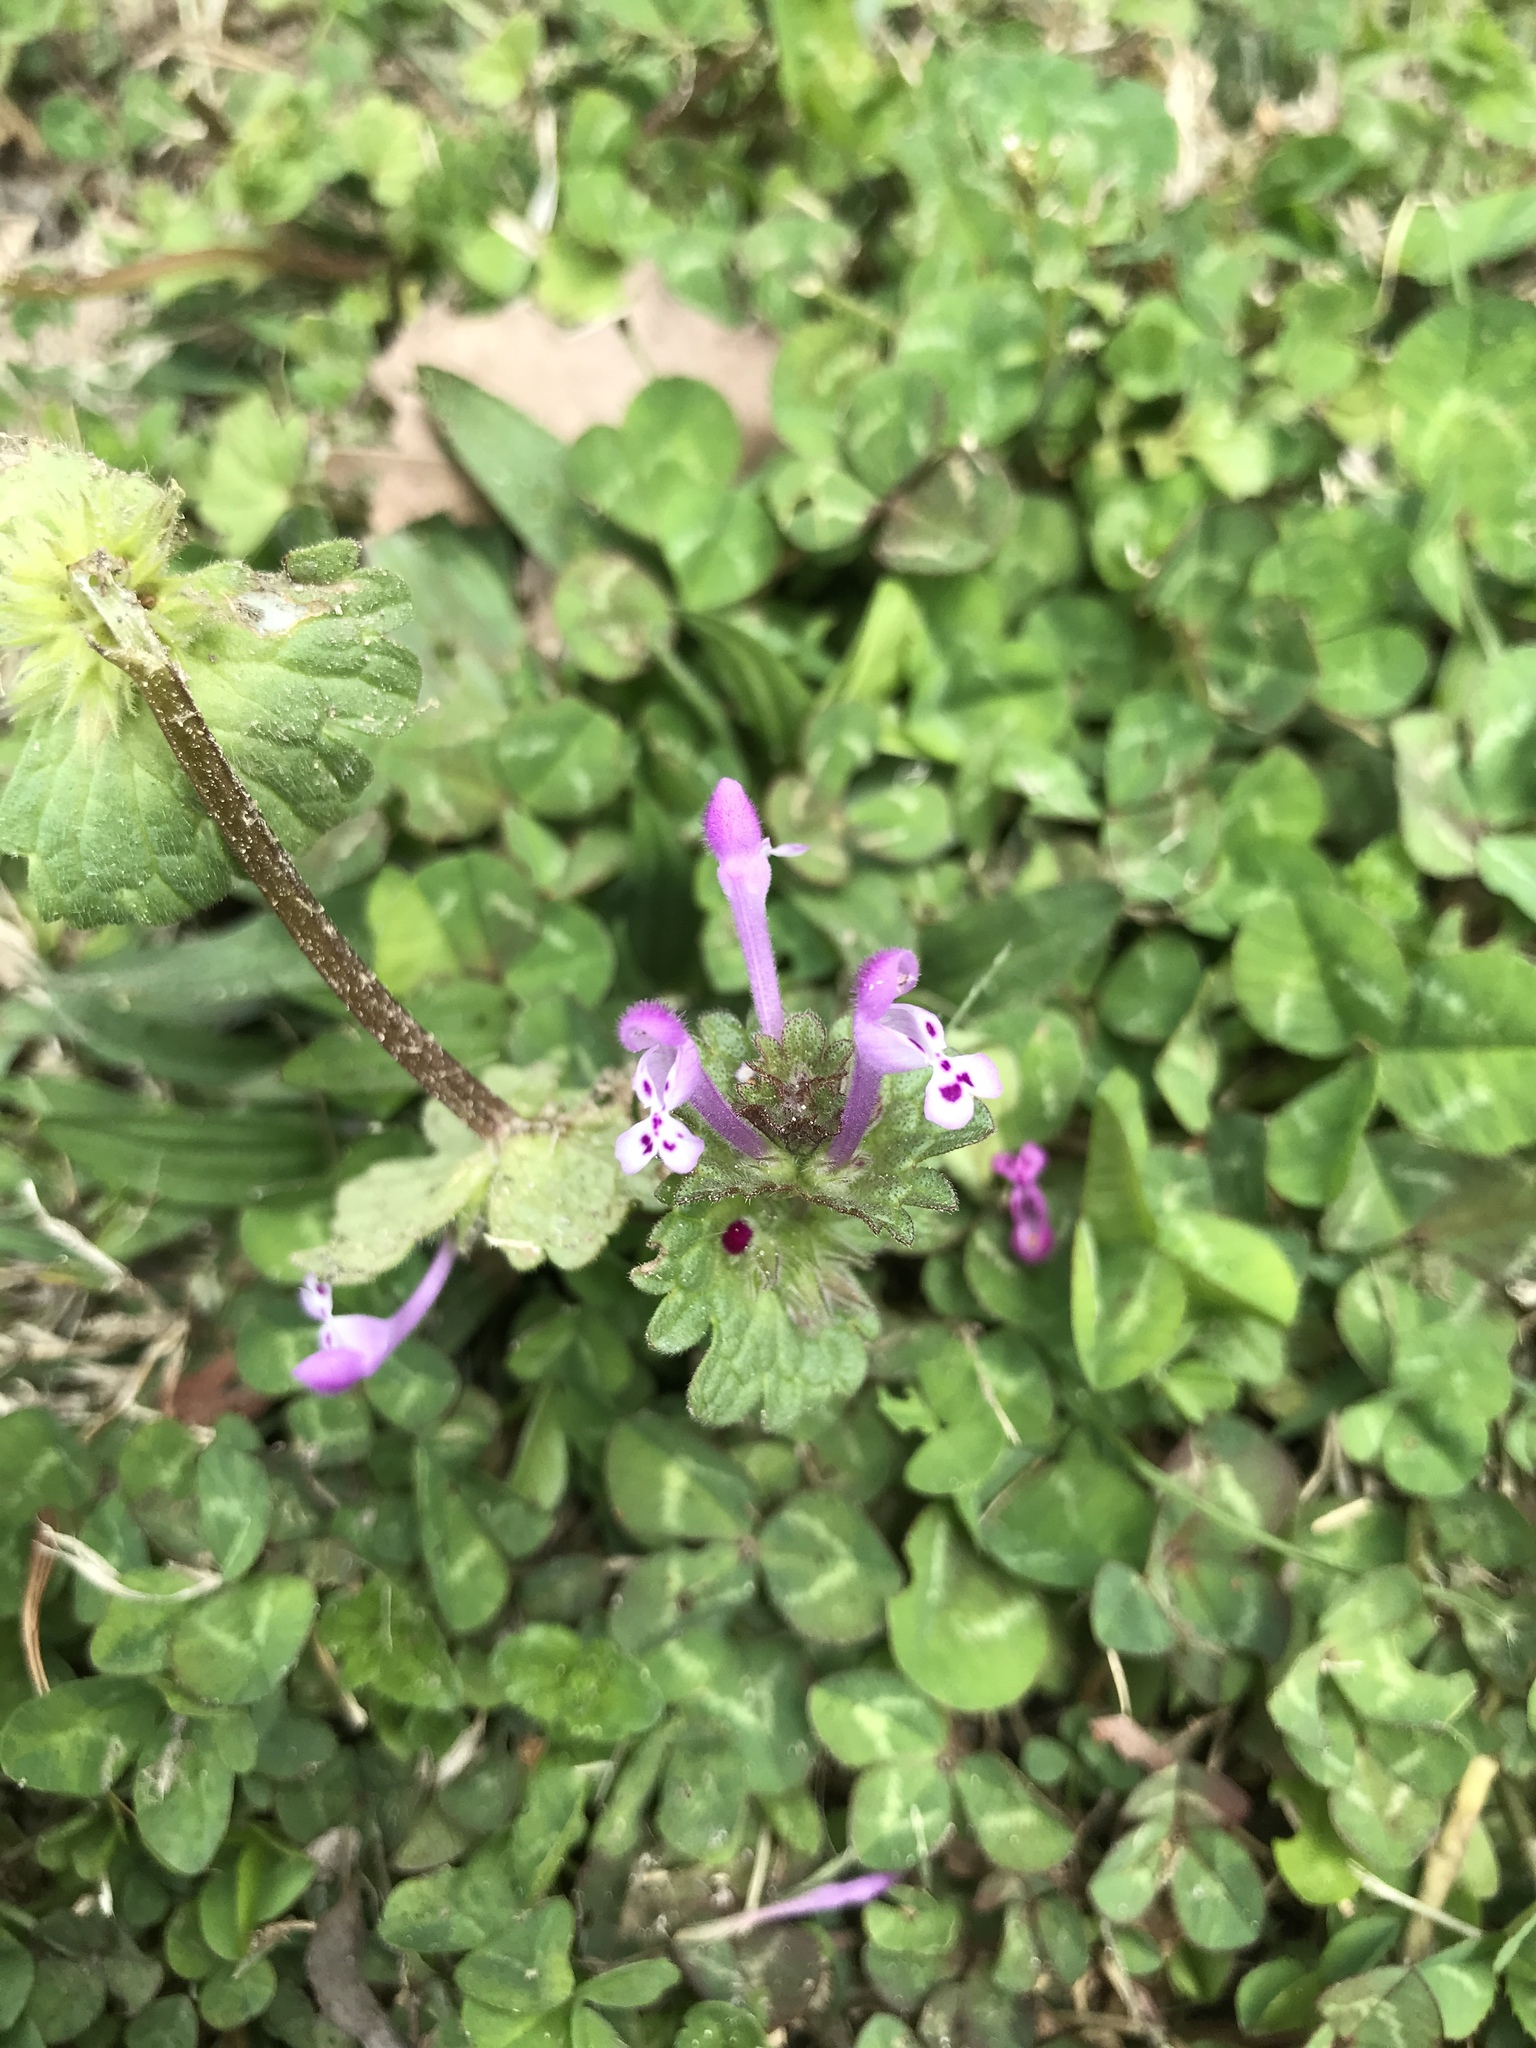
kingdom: Plantae
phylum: Tracheophyta
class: Magnoliopsida
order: Lamiales
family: Lamiaceae
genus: Lamium
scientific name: Lamium amplexicaule
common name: Henbit dead-nettle
